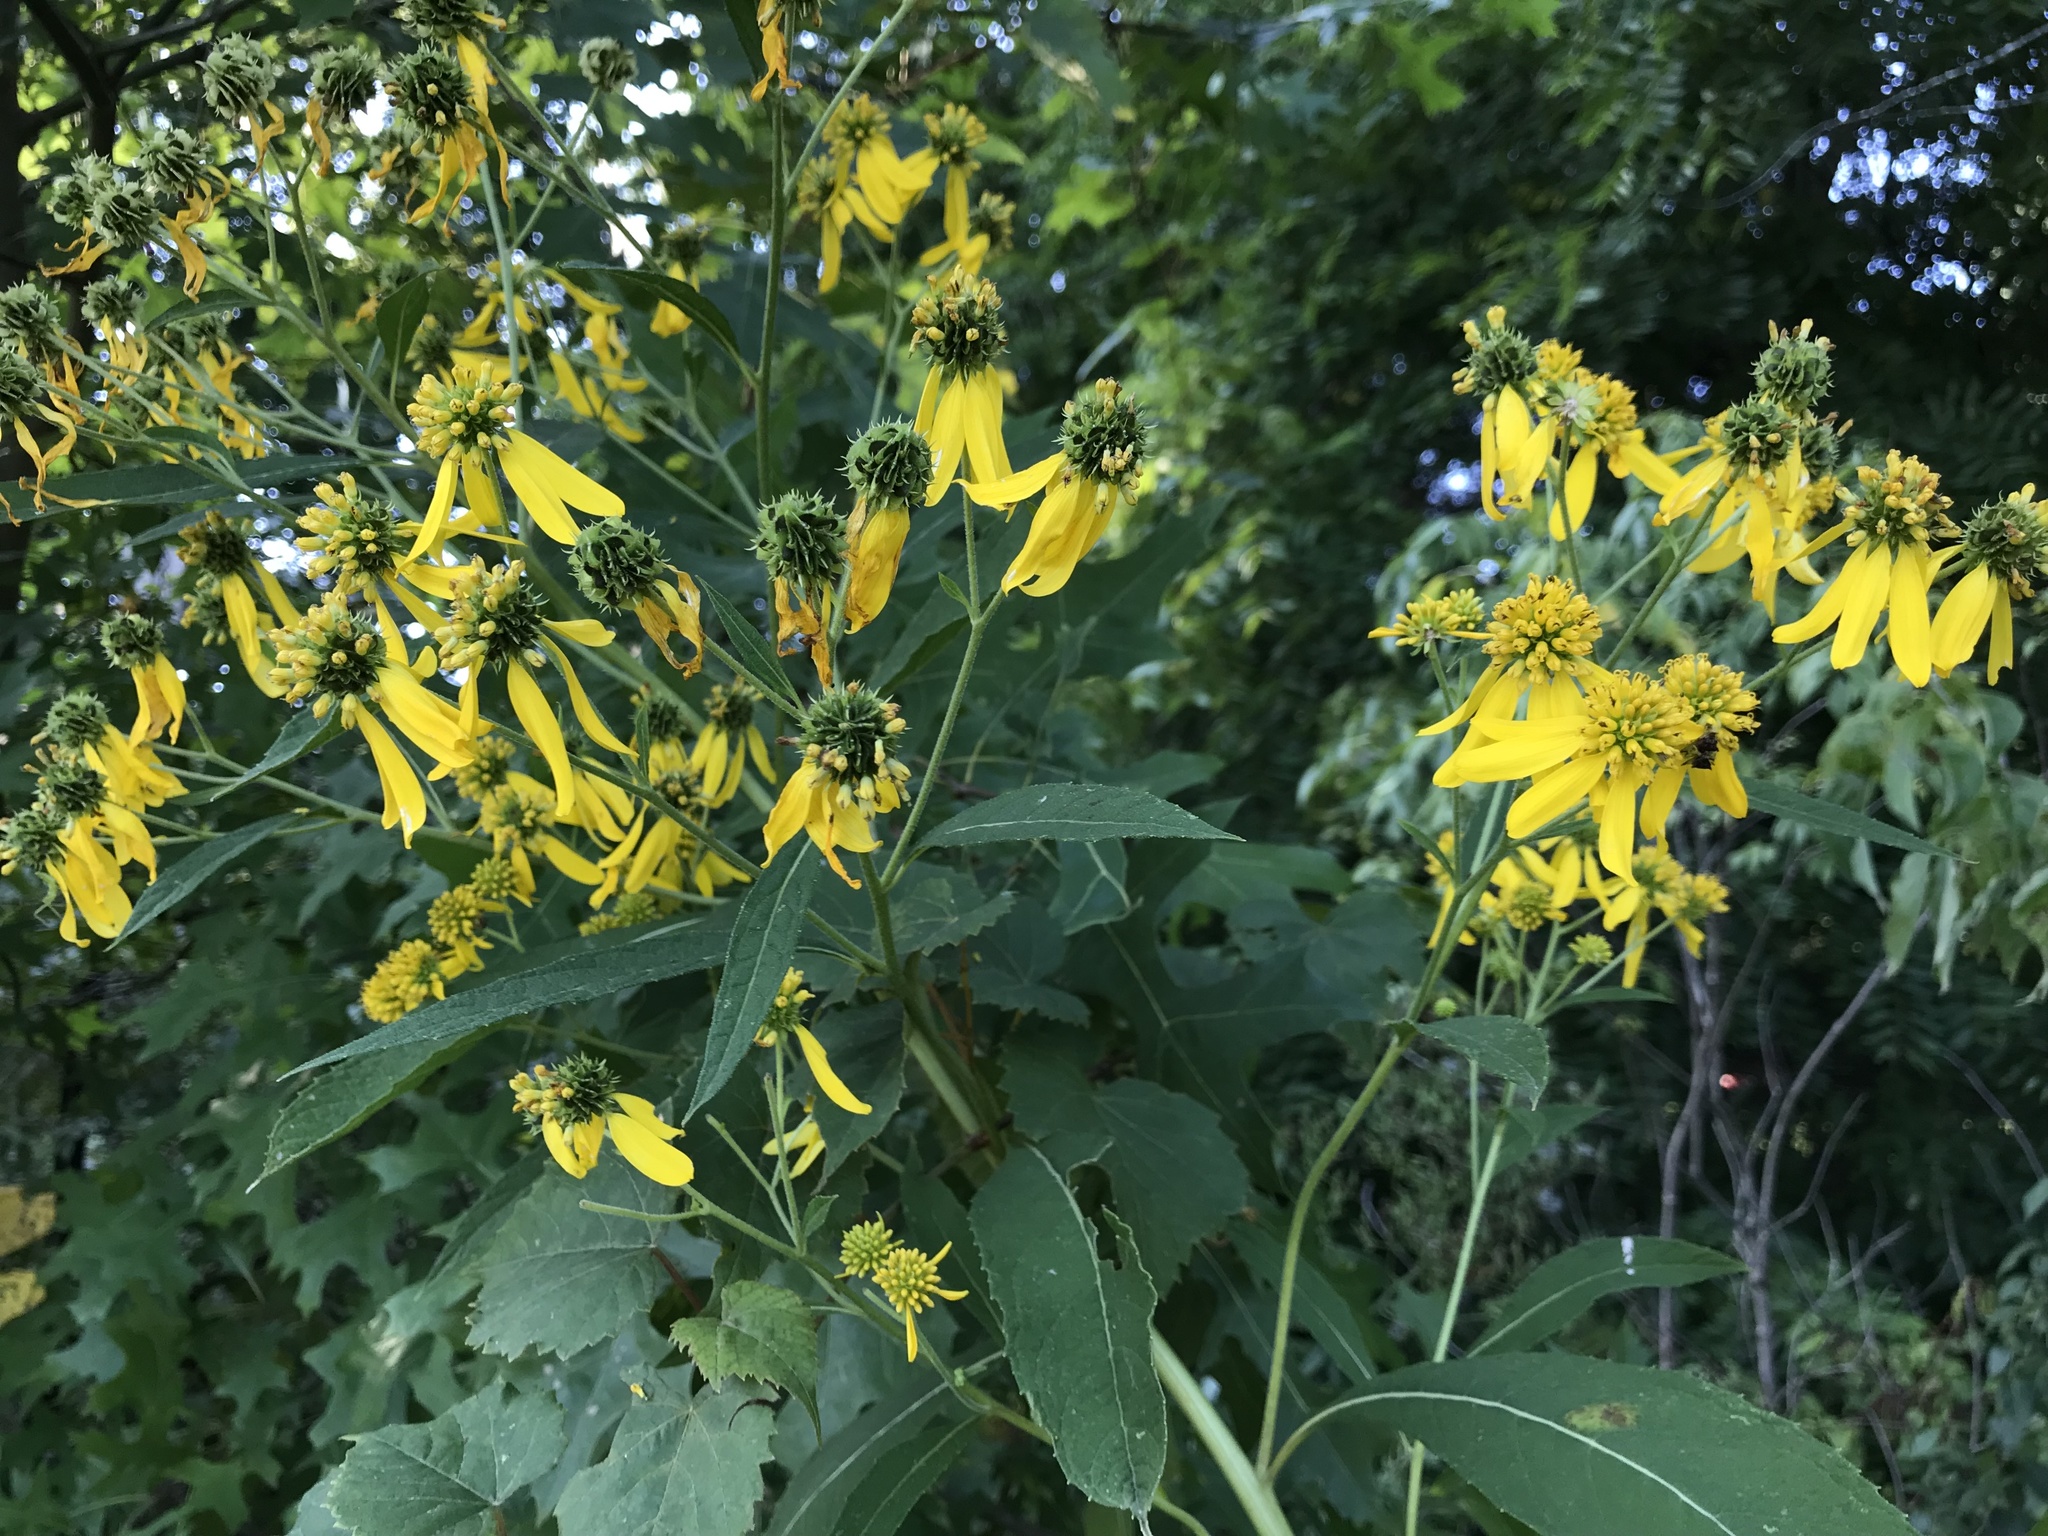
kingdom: Plantae
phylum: Tracheophyta
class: Magnoliopsida
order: Asterales
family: Asteraceae
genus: Verbesina
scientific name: Verbesina alternifolia
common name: Wingstem
